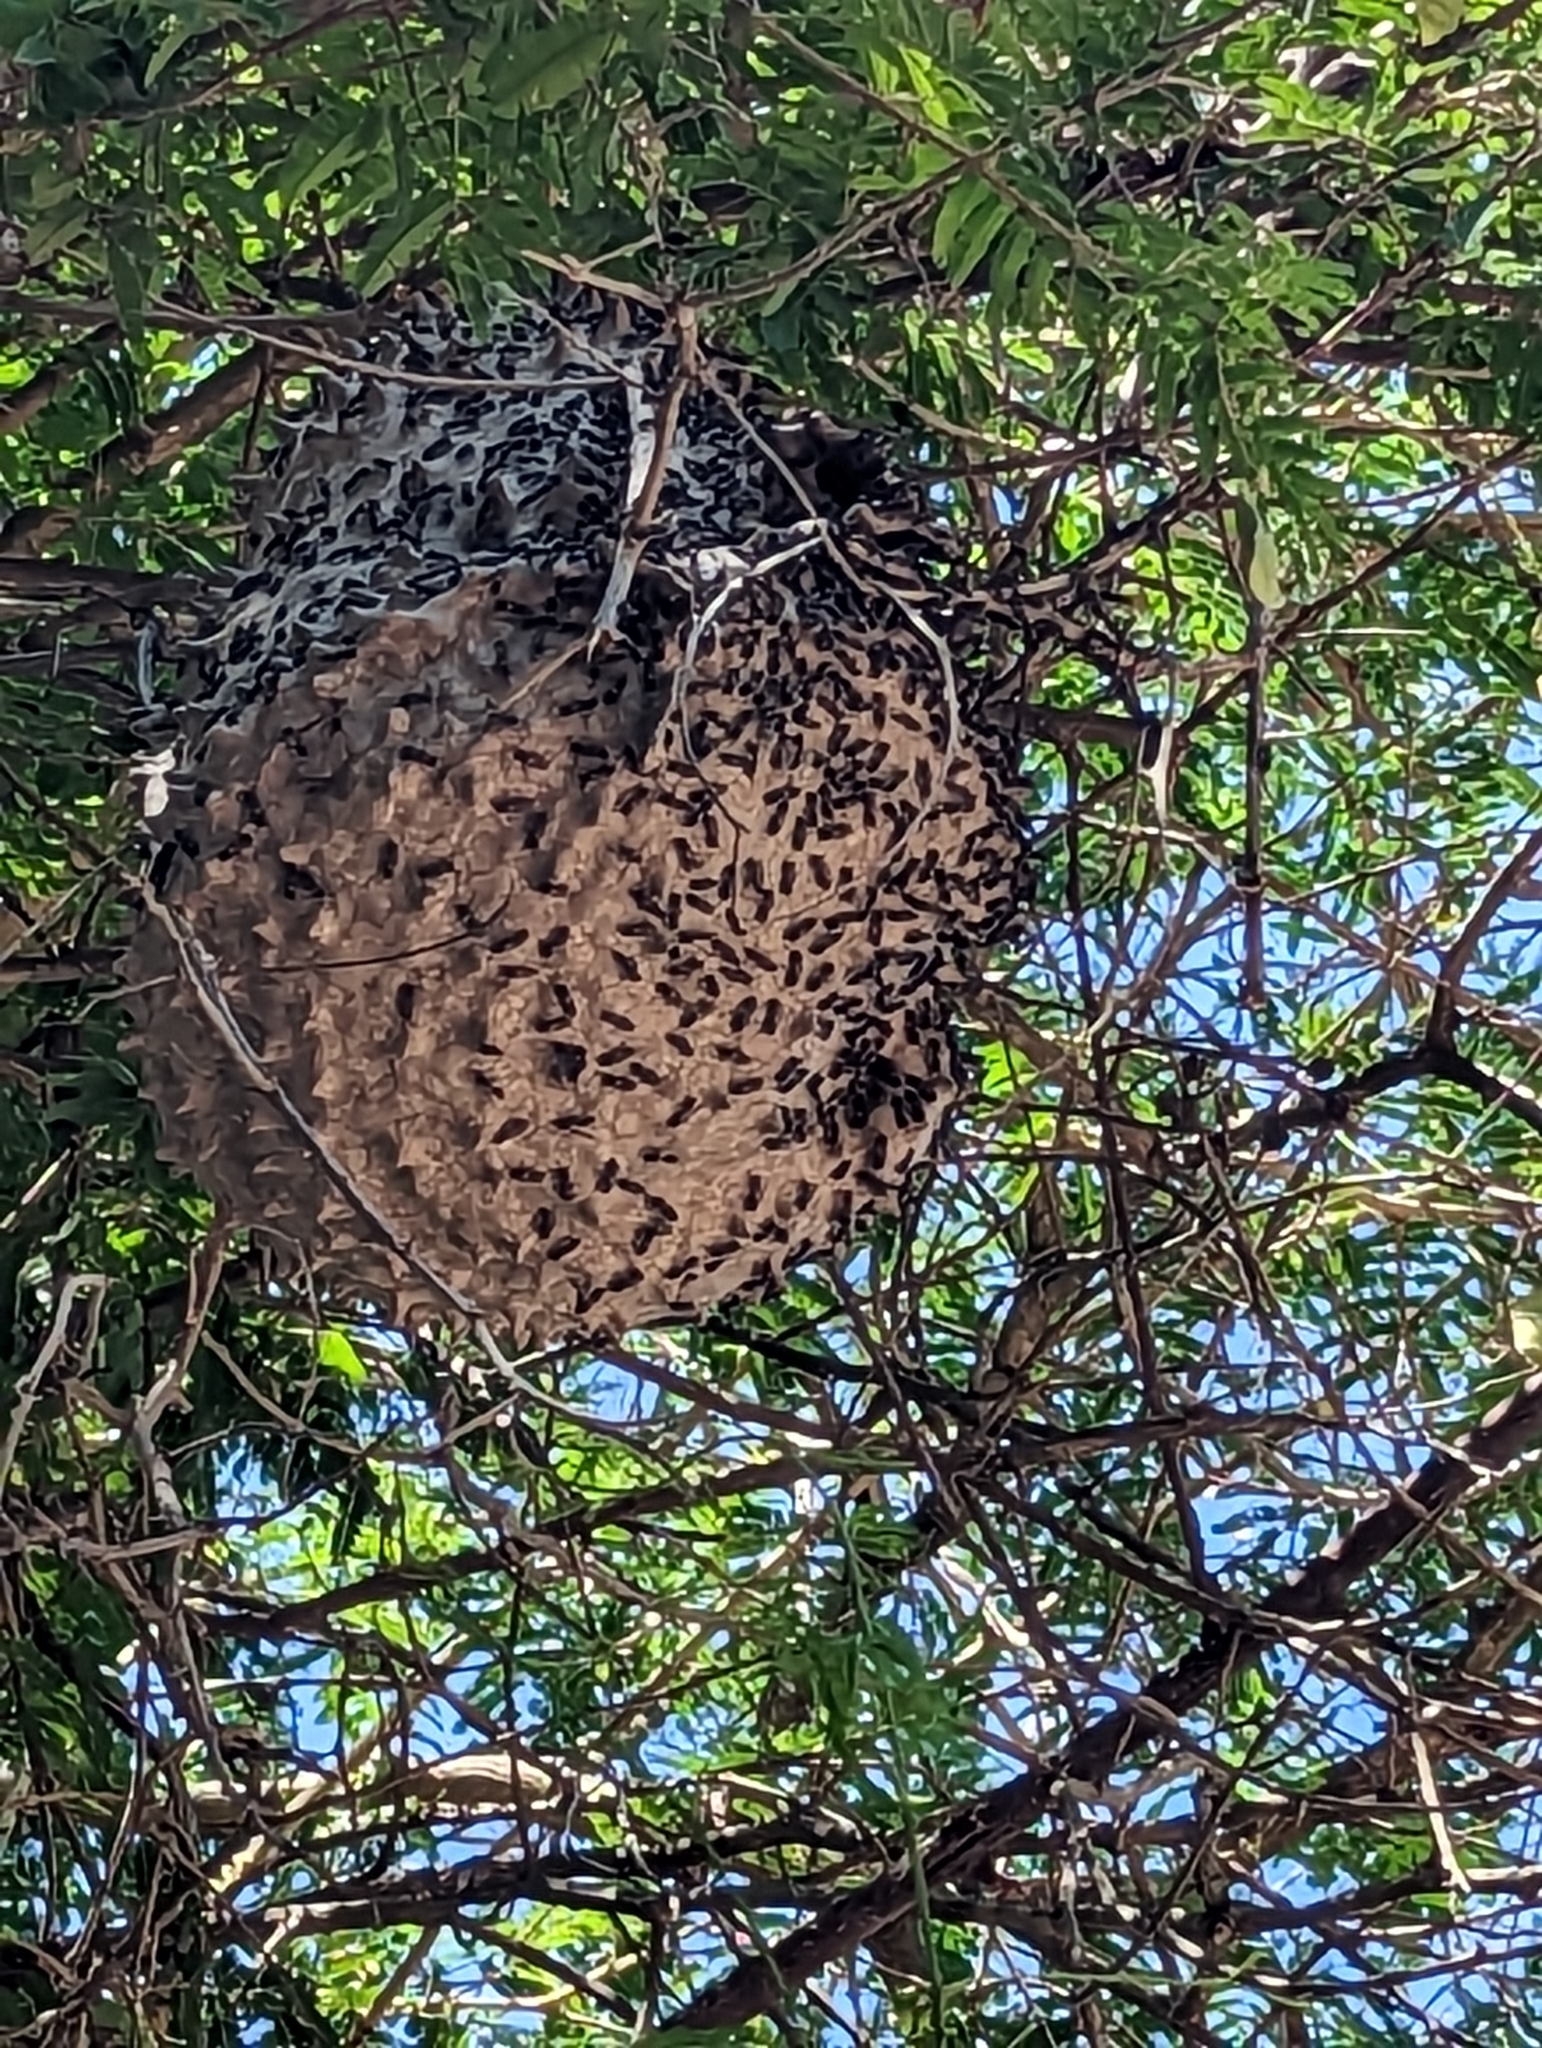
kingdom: Animalia
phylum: Arthropoda
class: Insecta
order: Hymenoptera
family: Eumenidae
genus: Polybia
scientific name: Polybia scutellaris
